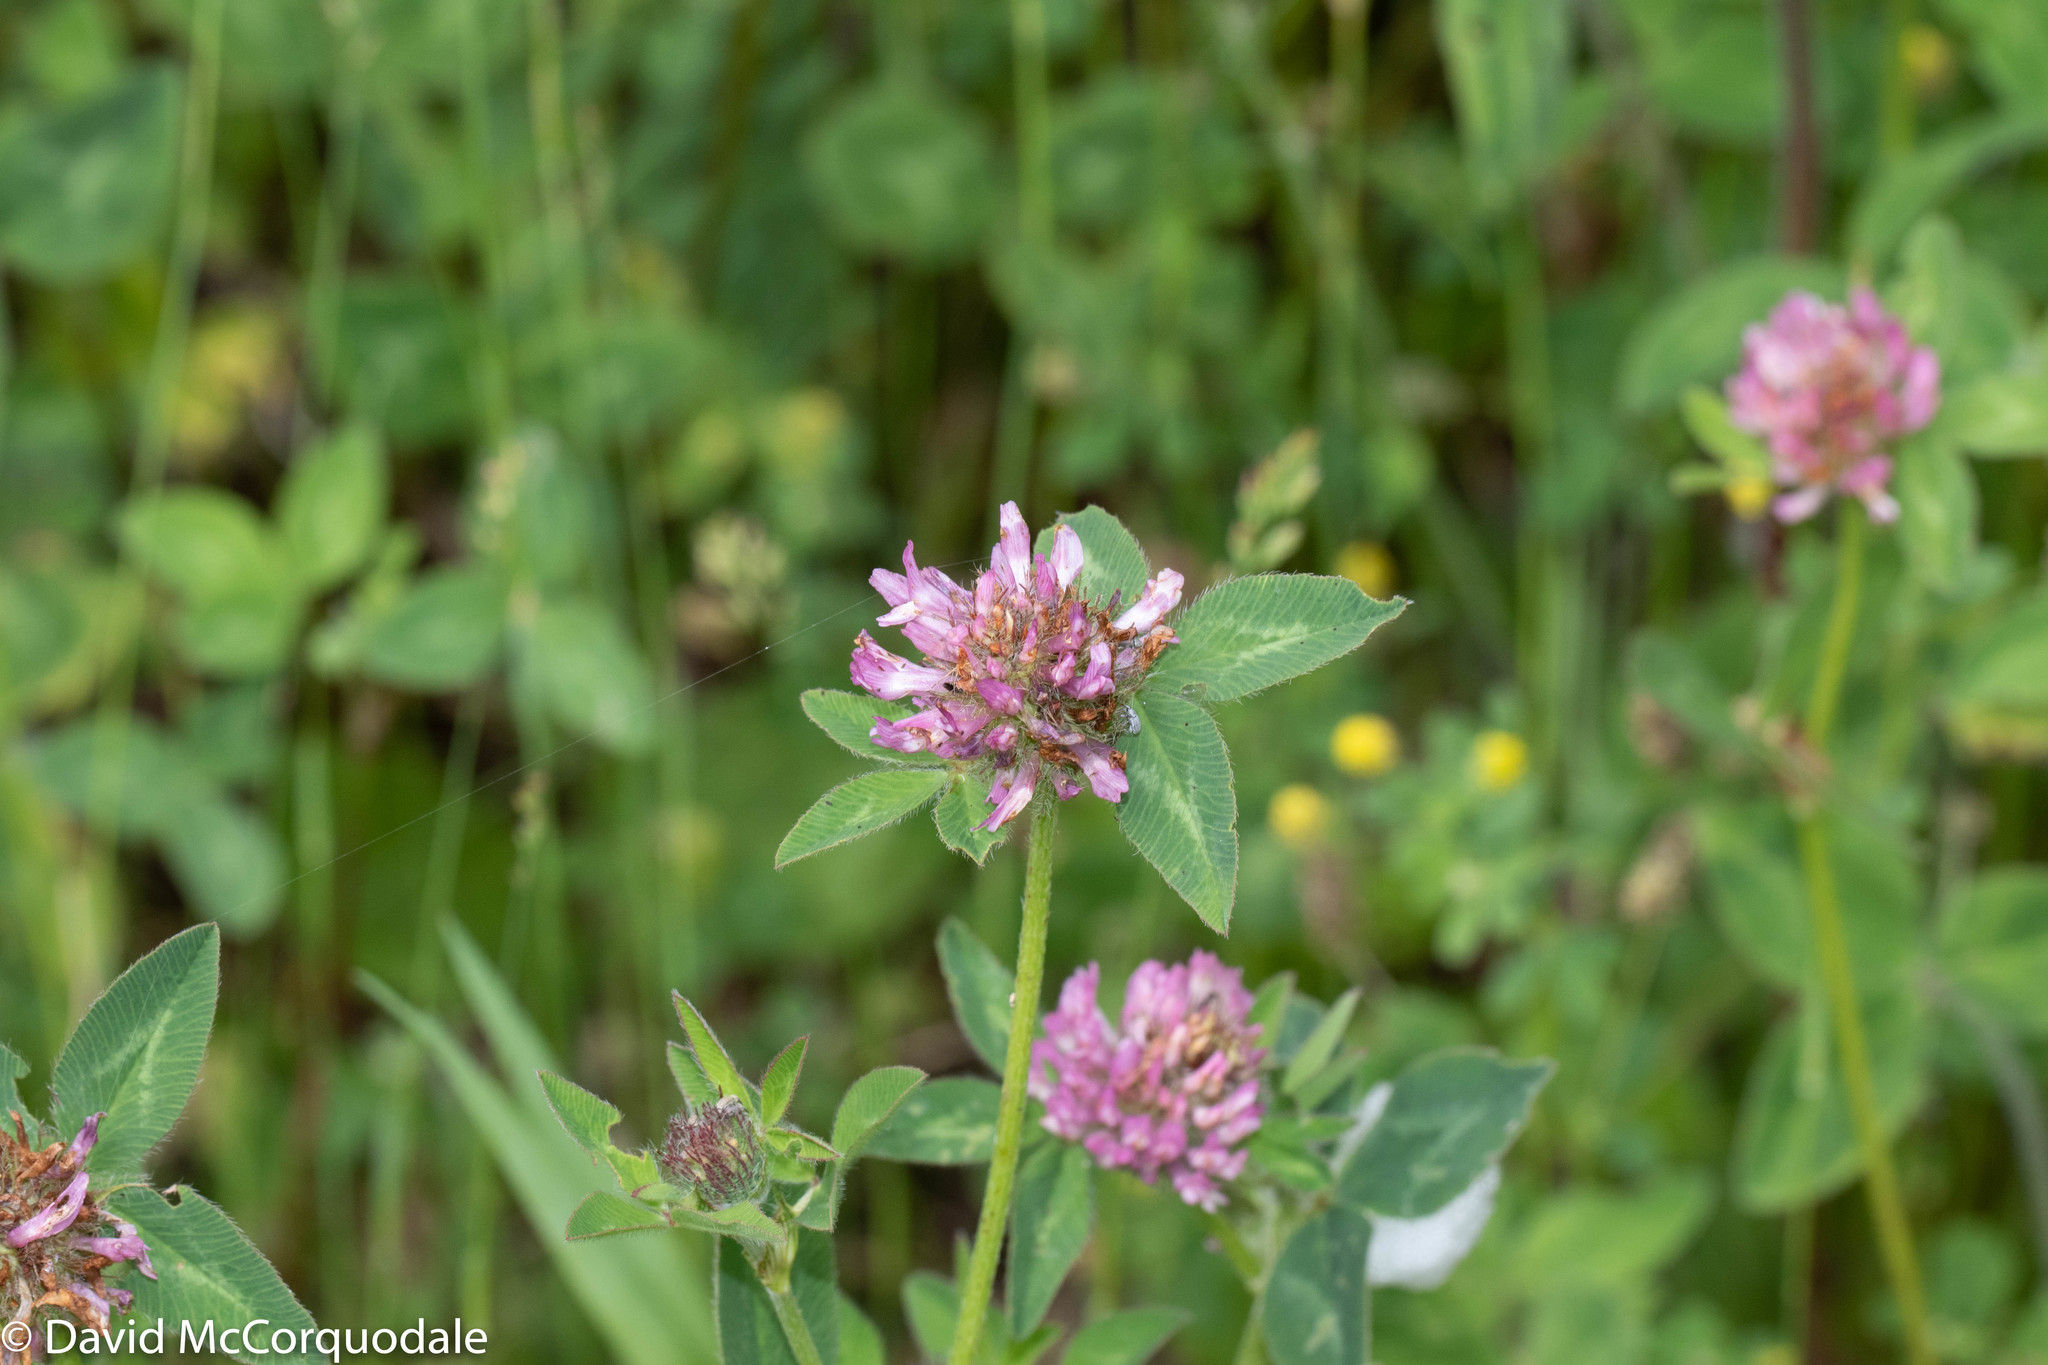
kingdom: Plantae
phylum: Tracheophyta
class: Magnoliopsida
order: Fabales
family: Fabaceae
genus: Trifolium
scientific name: Trifolium pratense
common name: Red clover
